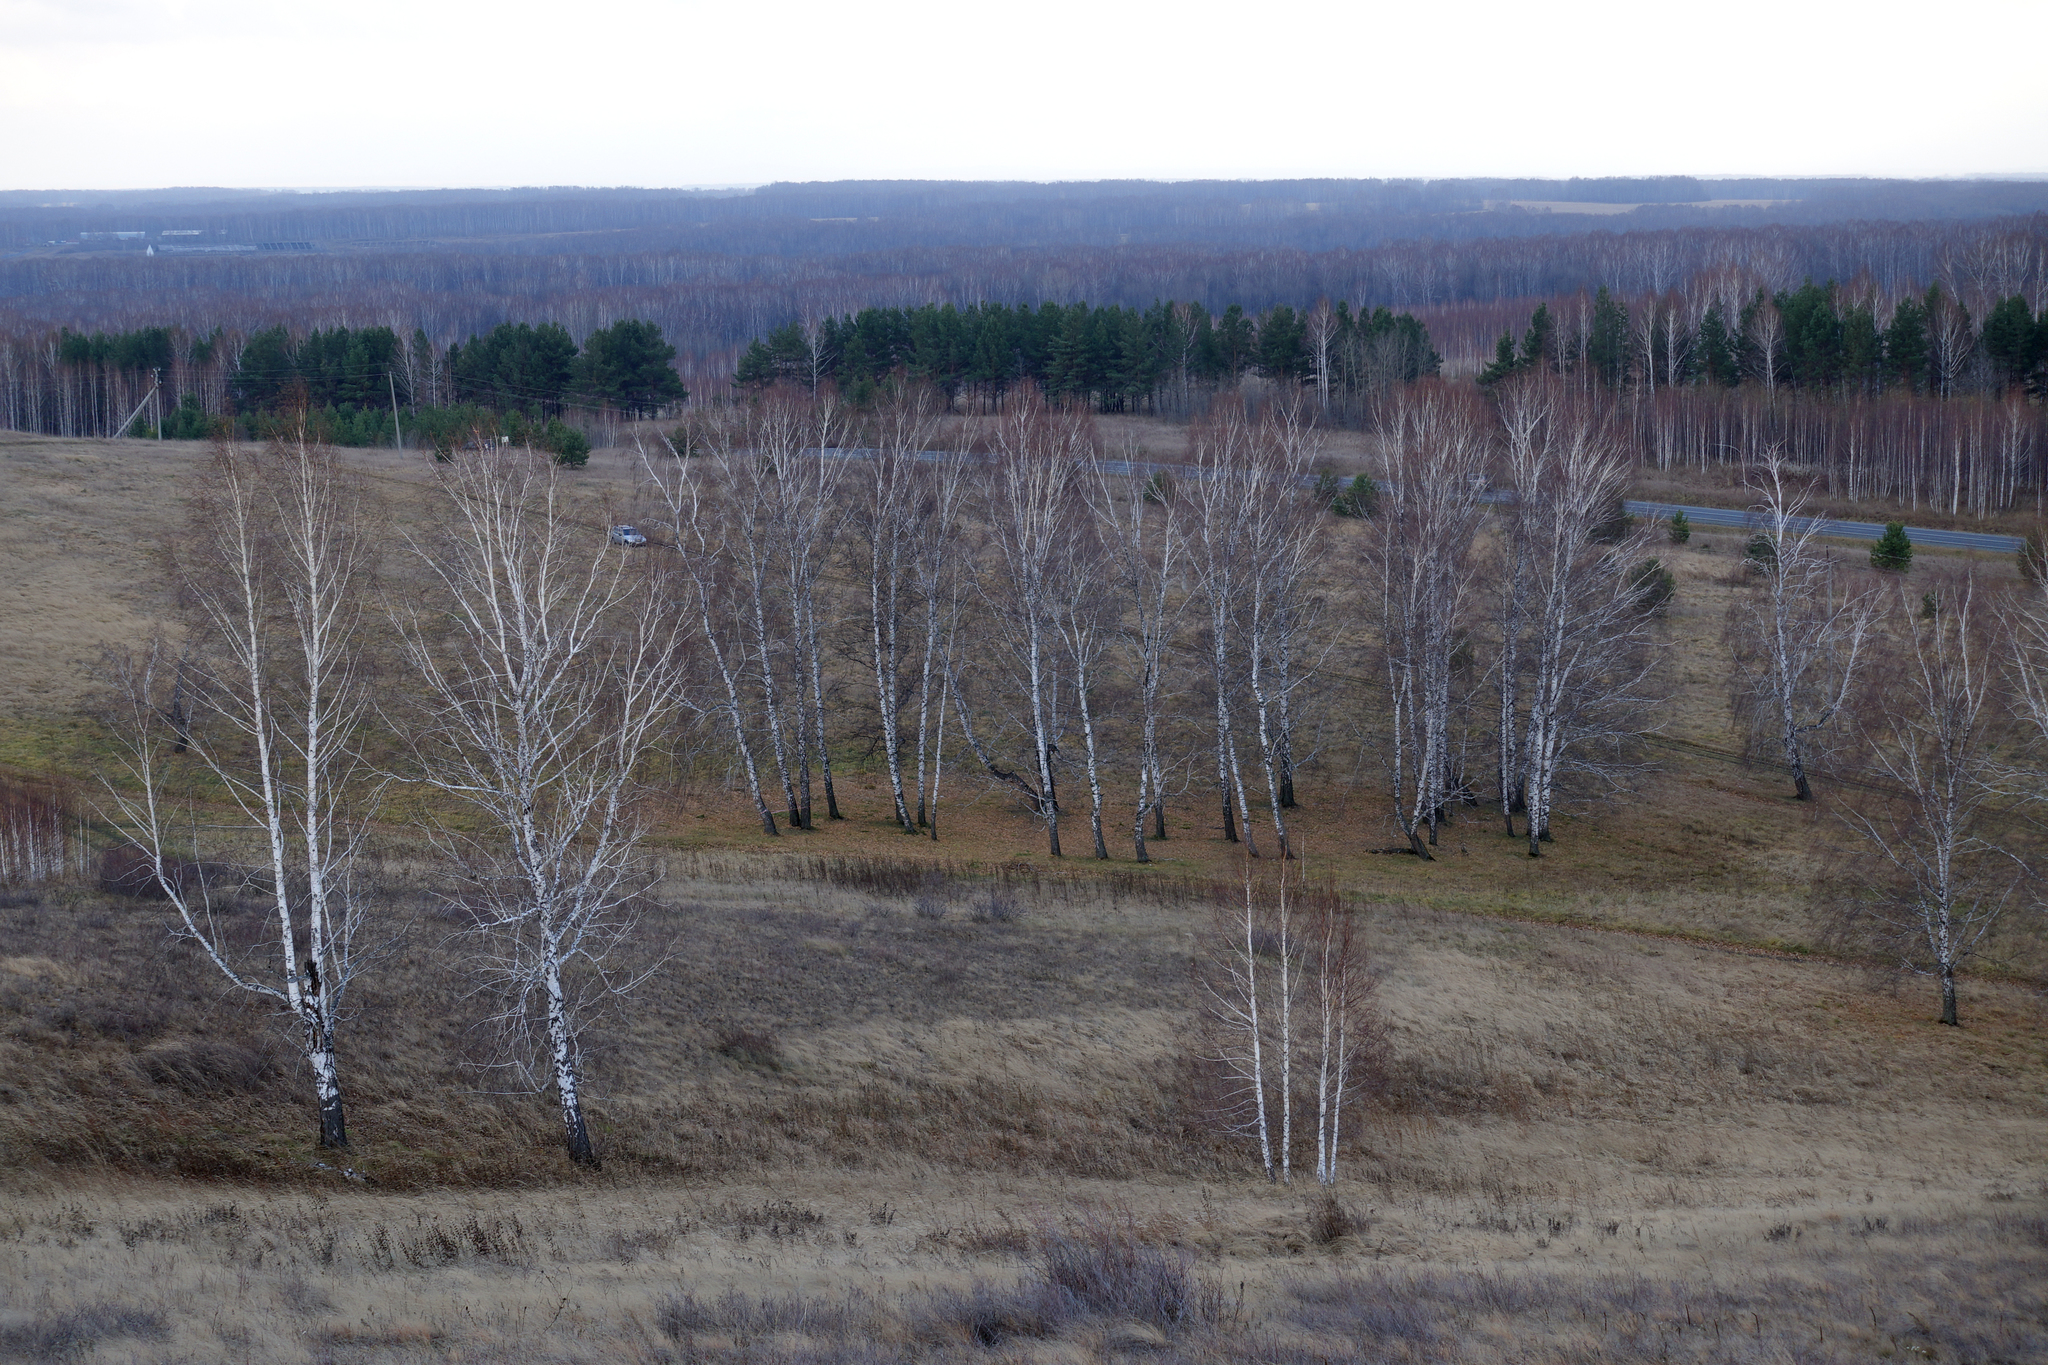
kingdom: Plantae
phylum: Tracheophyta
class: Magnoliopsida
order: Fagales
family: Betulaceae
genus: Betula
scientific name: Betula pendula
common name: Silver birch
